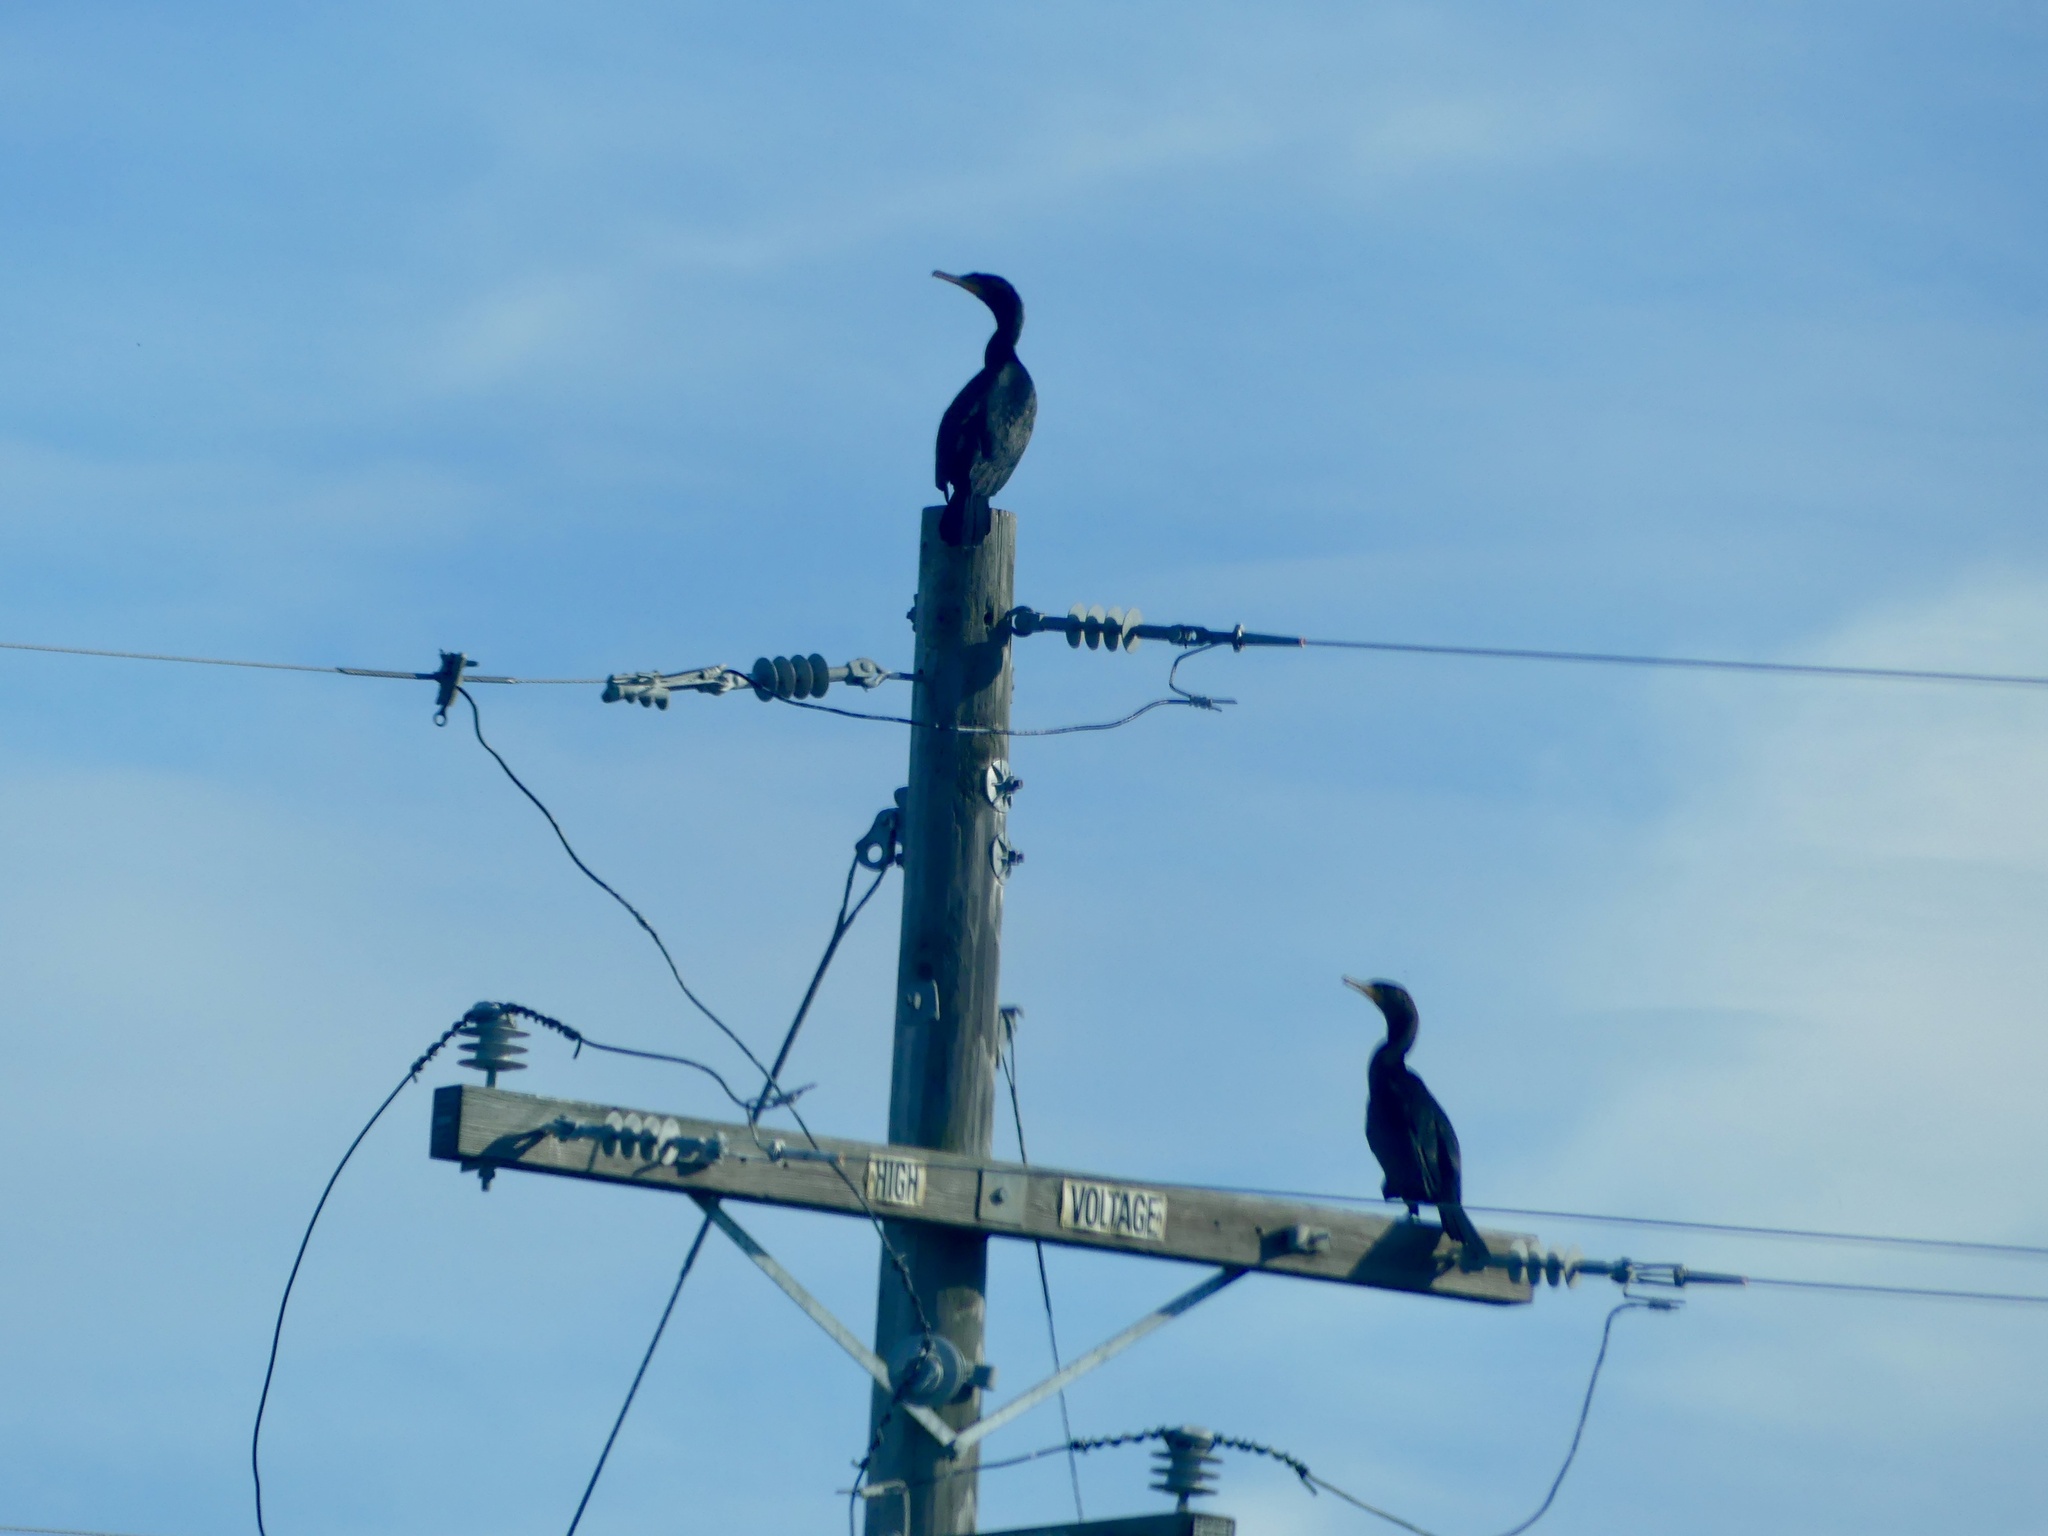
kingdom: Animalia
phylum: Chordata
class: Aves
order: Suliformes
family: Phalacrocoracidae
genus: Phalacrocorax
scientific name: Phalacrocorax auritus
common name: Double-crested cormorant
